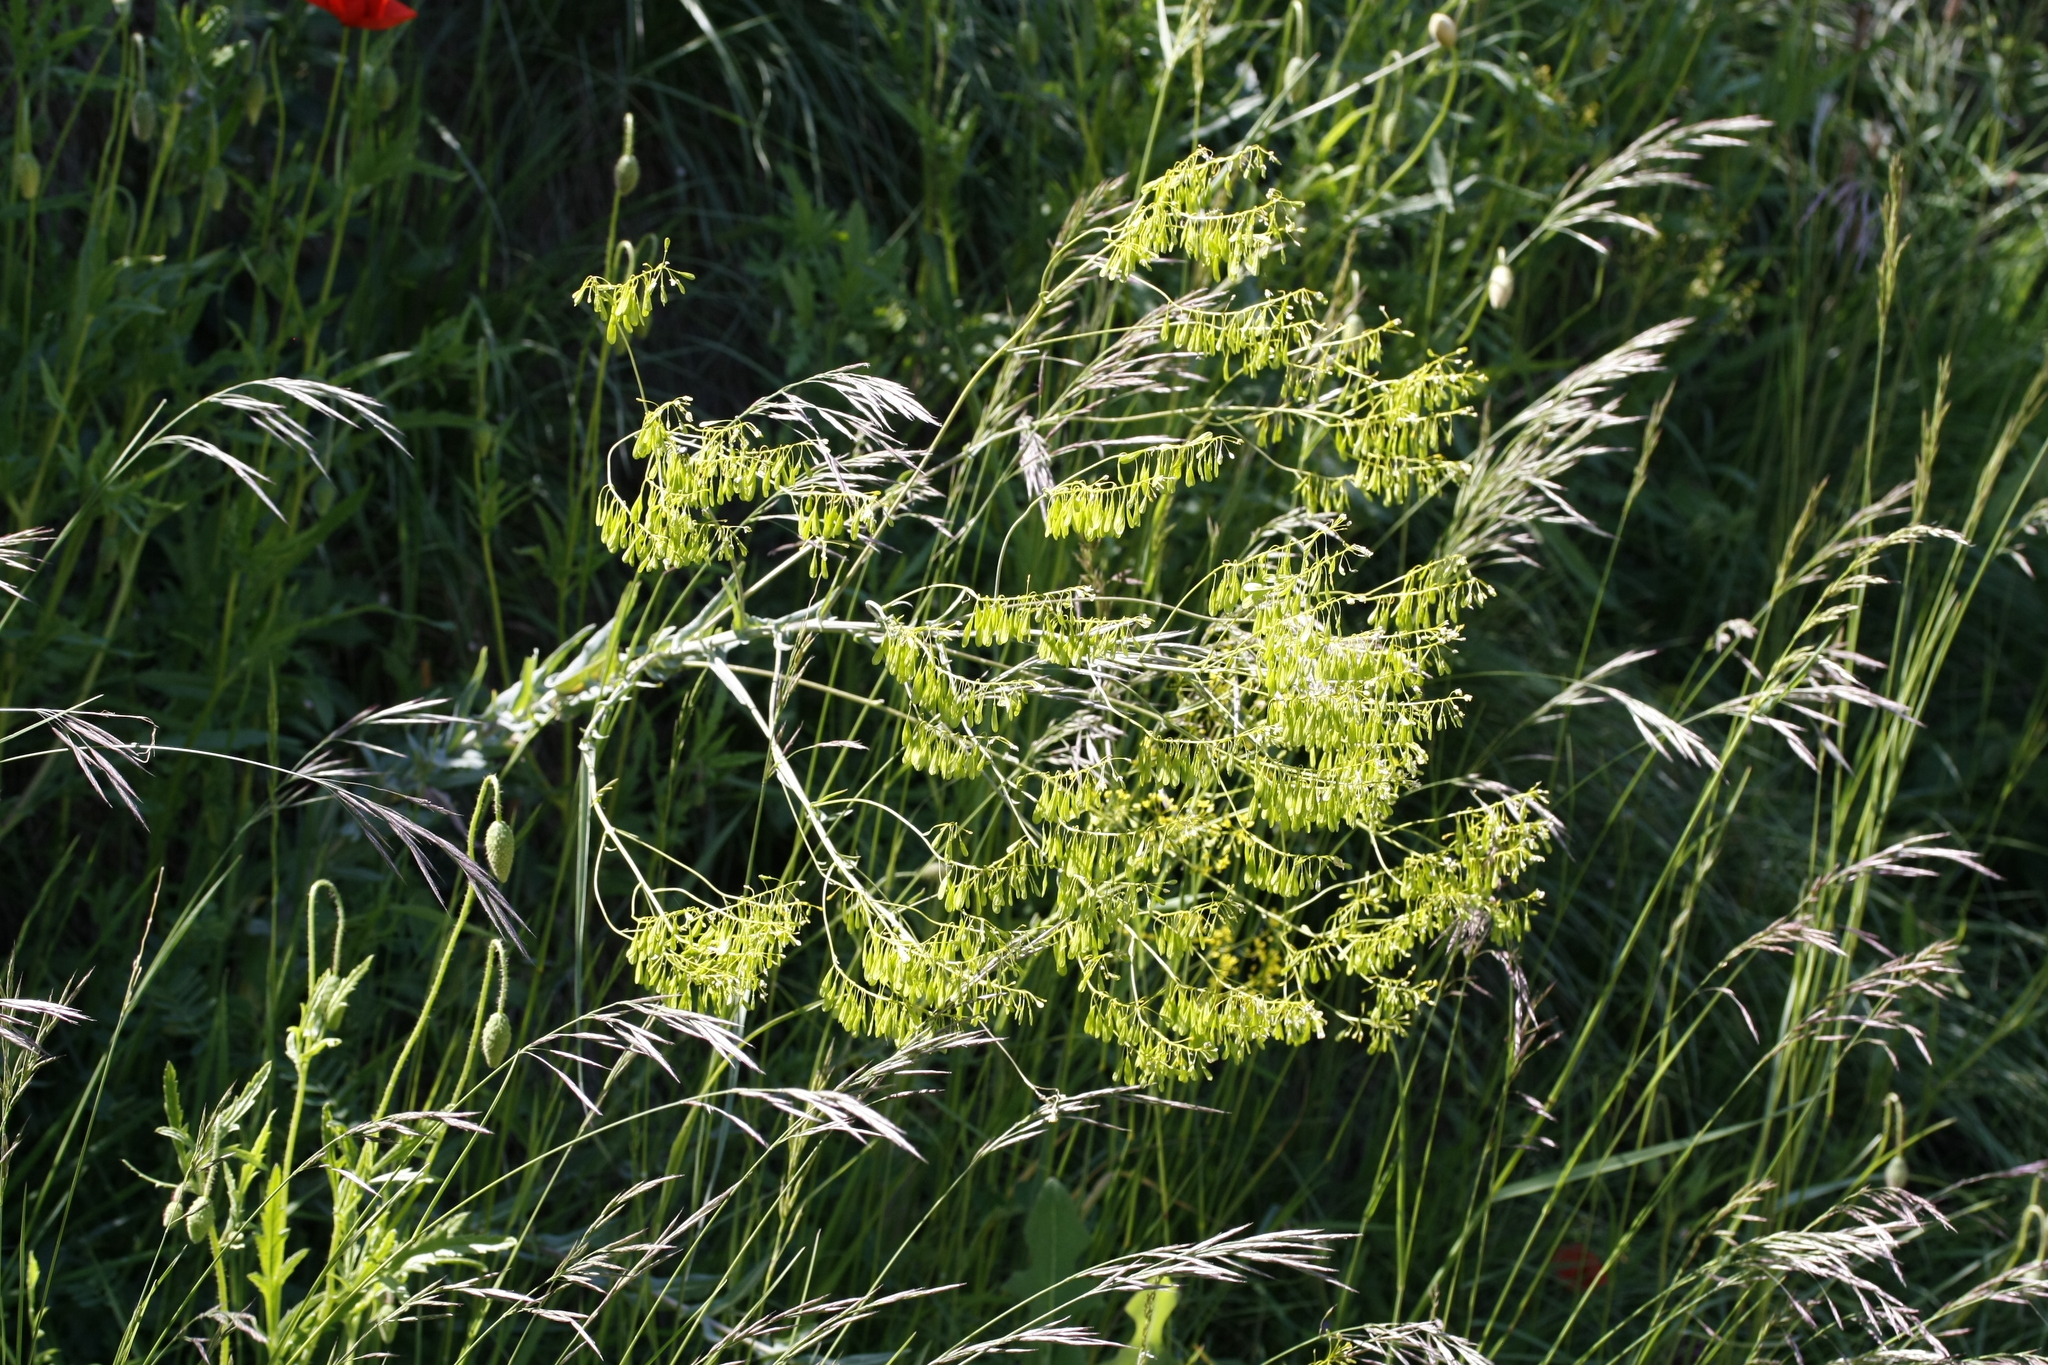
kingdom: Plantae
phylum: Tracheophyta
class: Magnoliopsida
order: Brassicales
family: Brassicaceae
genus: Isatis
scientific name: Isatis tinctoria
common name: Woad
